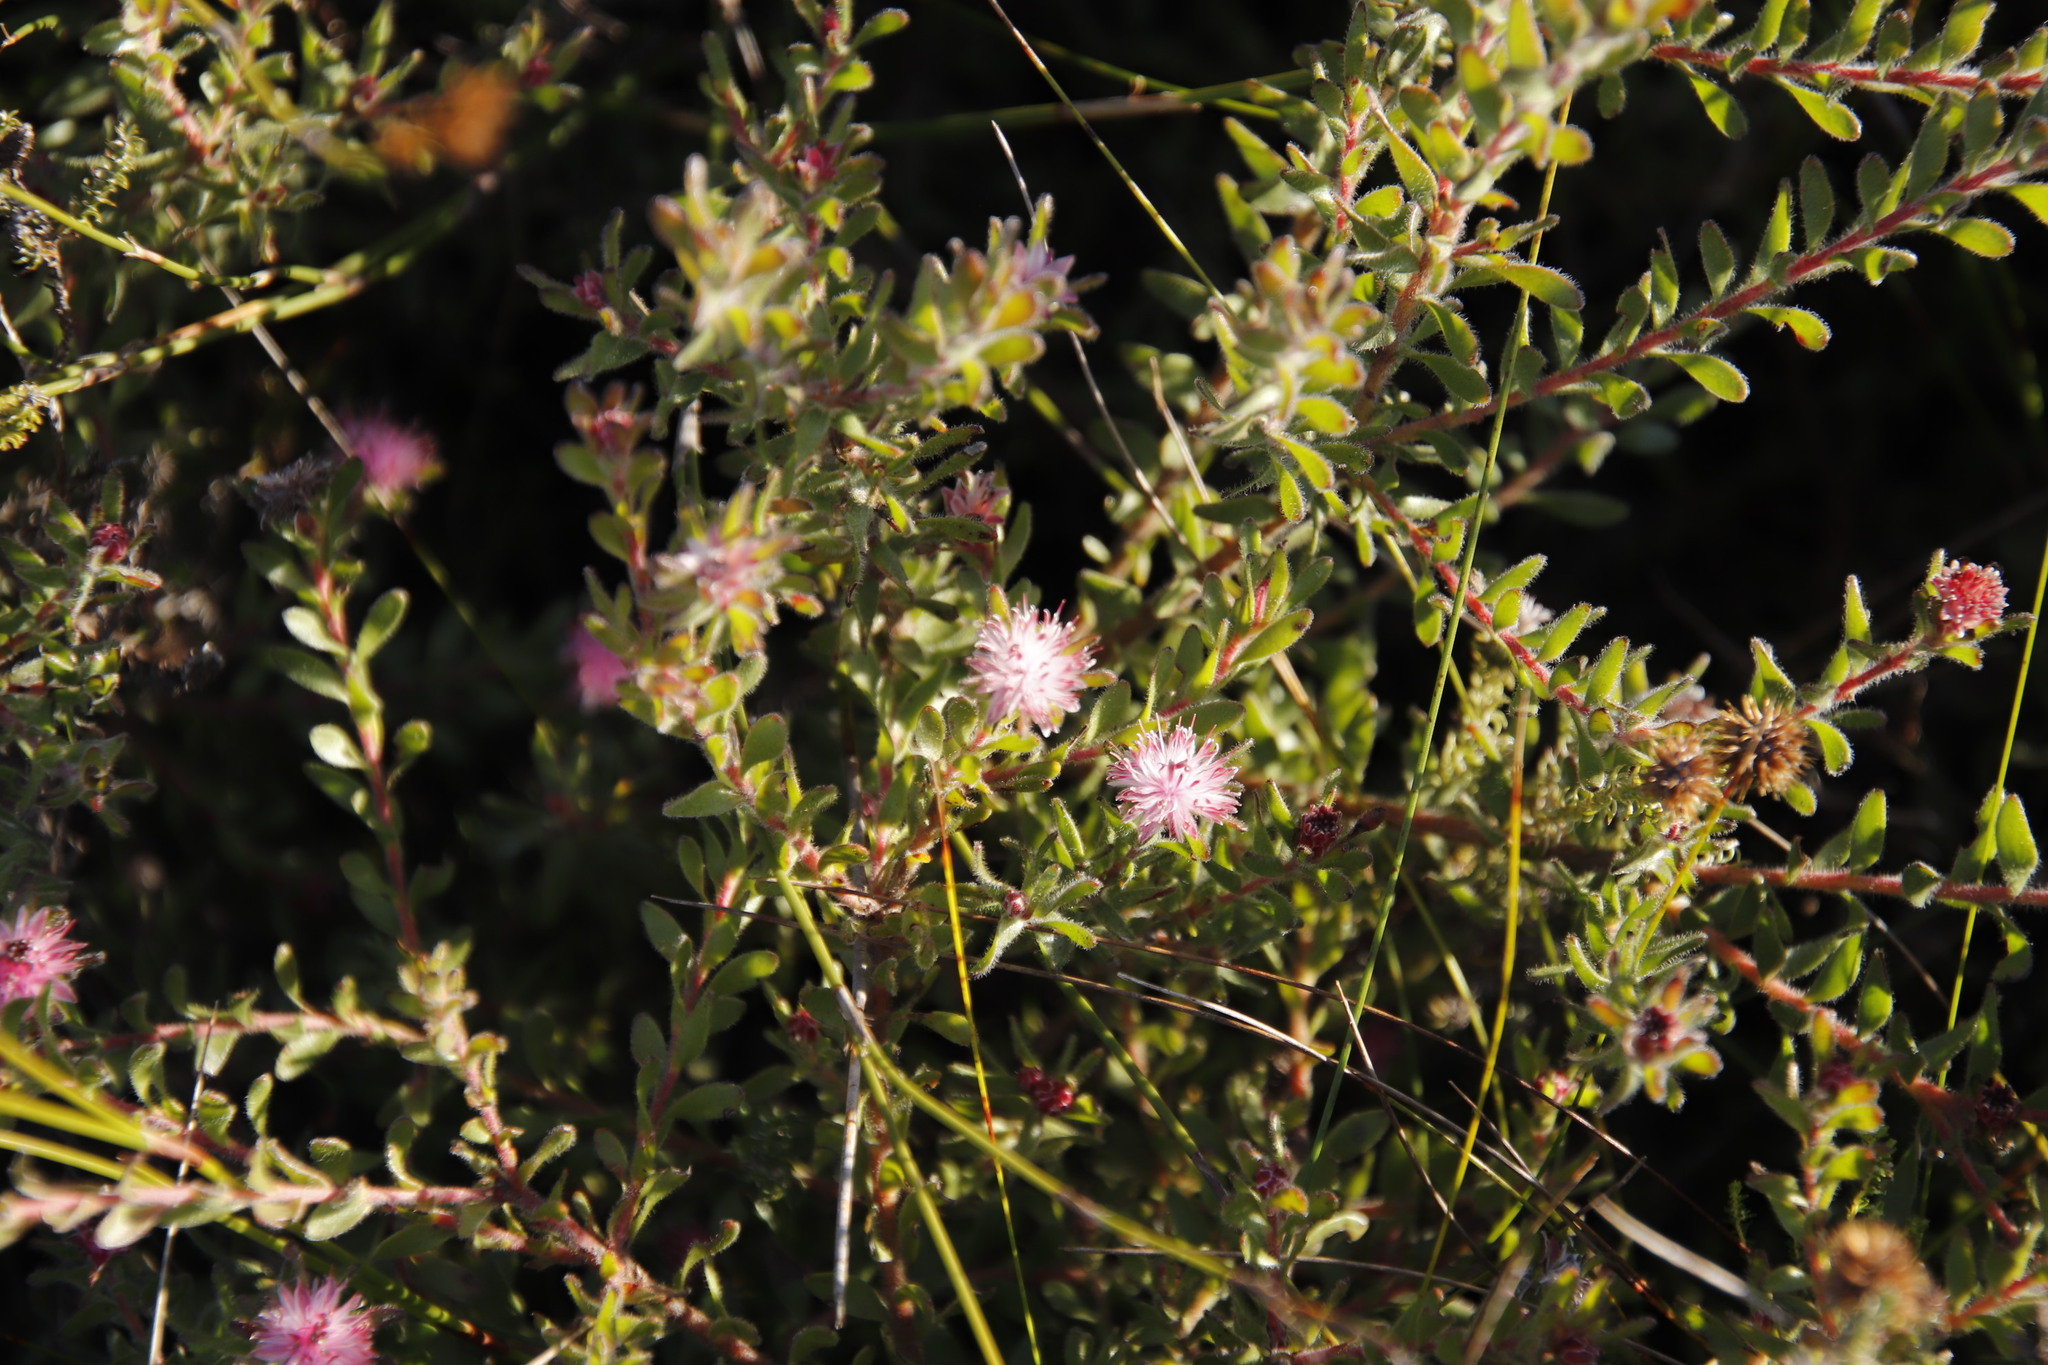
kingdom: Plantae
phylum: Tracheophyta
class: Magnoliopsida
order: Proteales
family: Proteaceae
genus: Diastella
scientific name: Diastella divaricata
